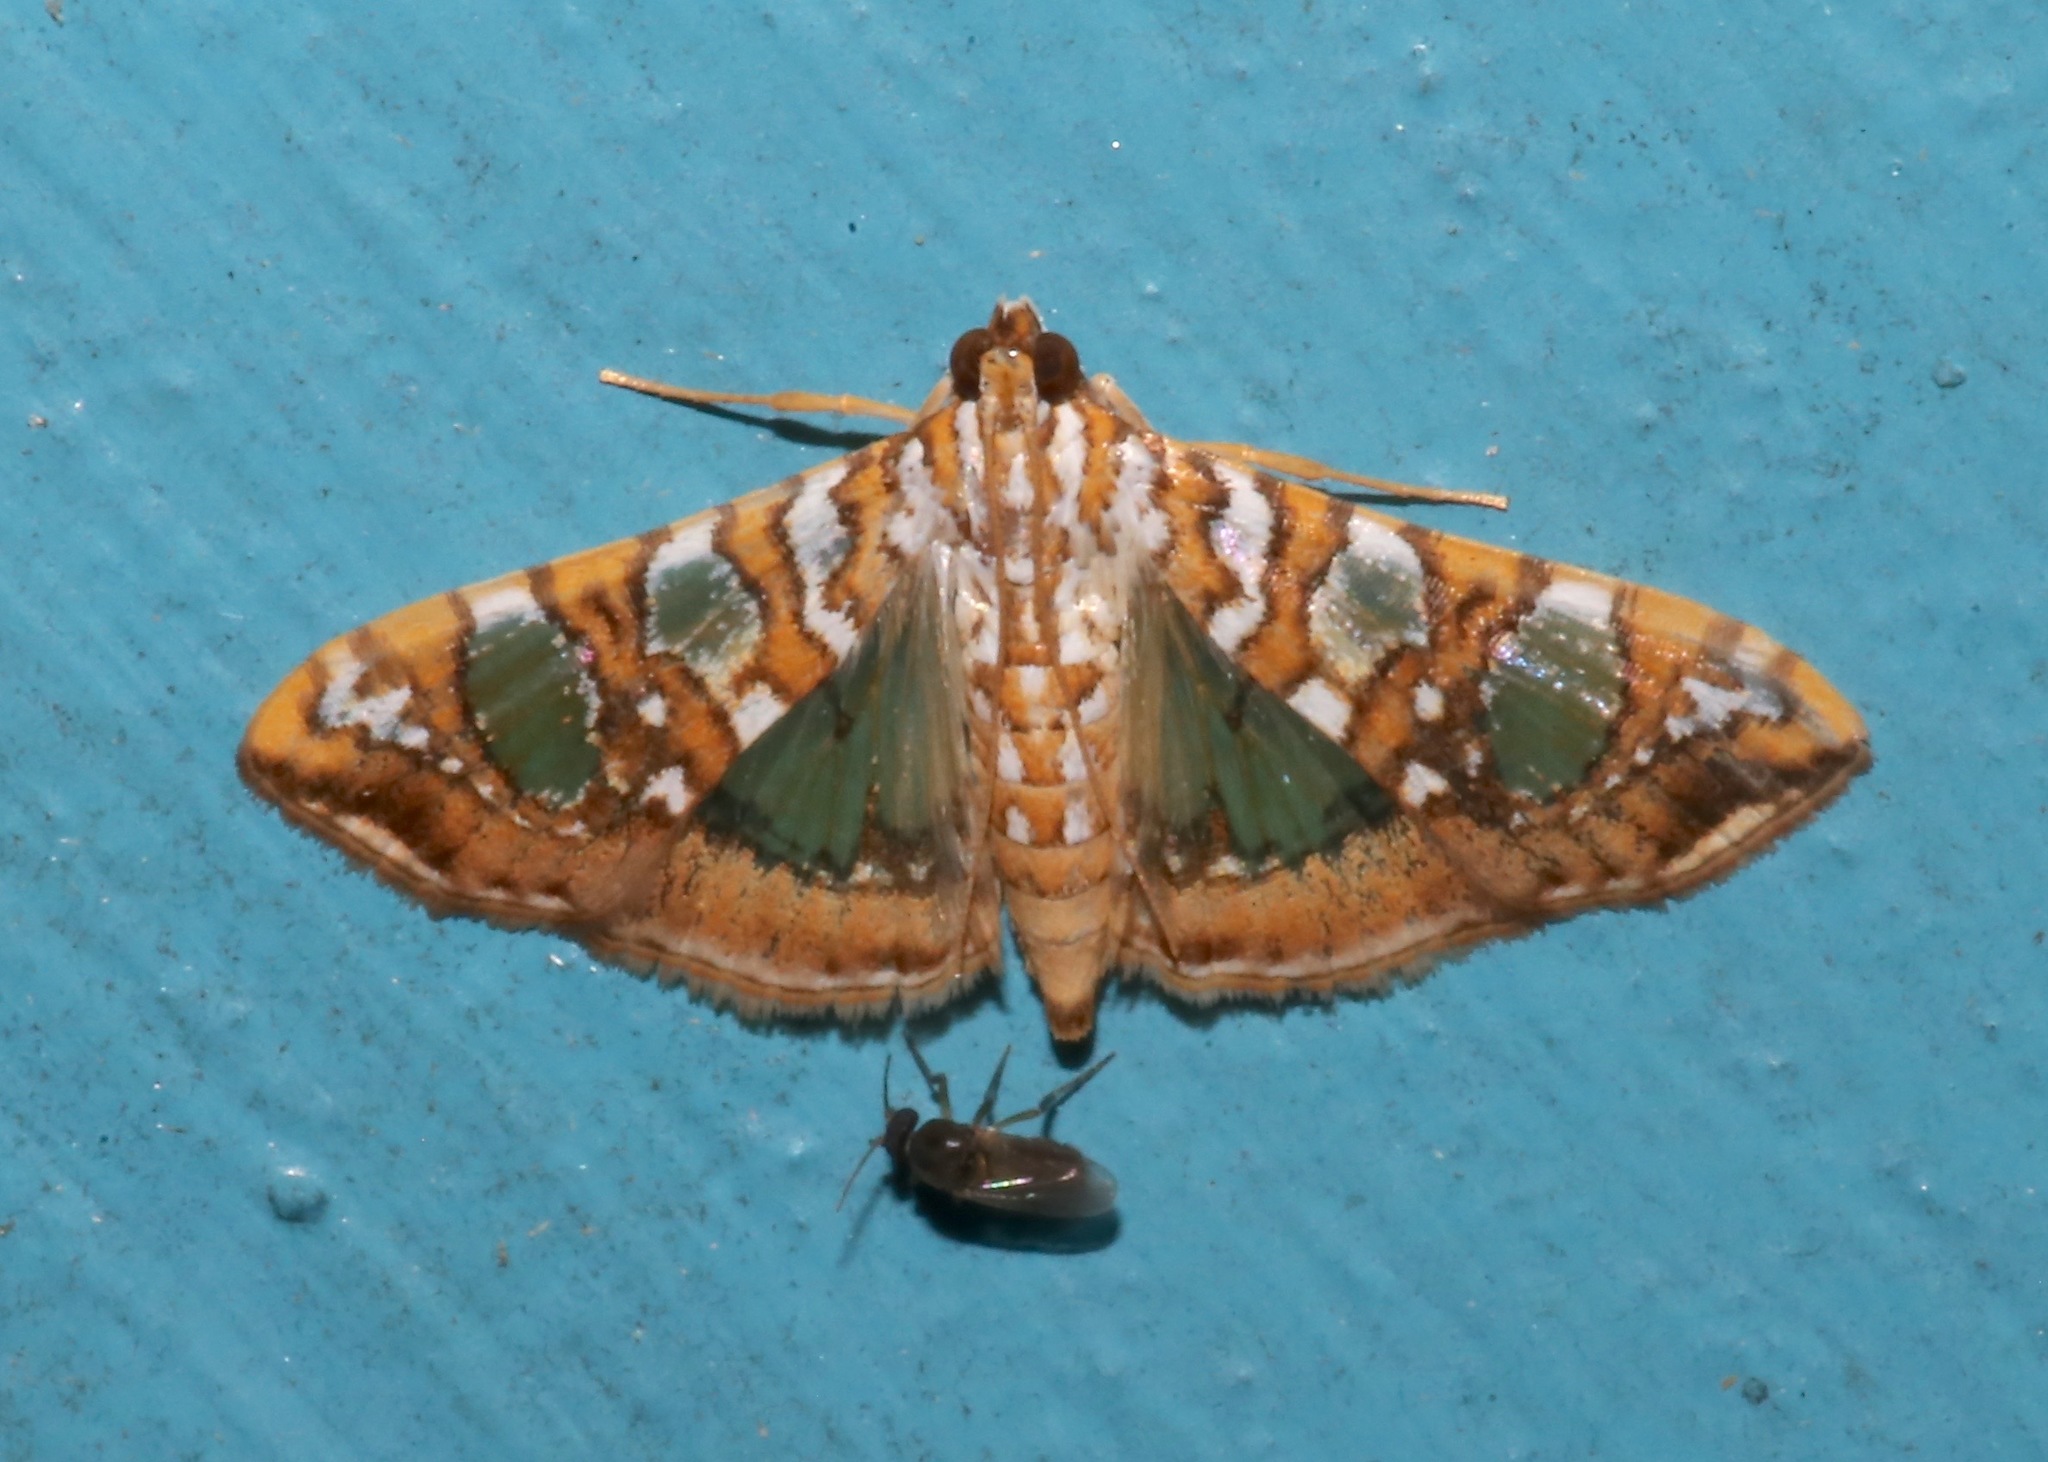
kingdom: Animalia
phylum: Arthropoda
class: Insecta
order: Lepidoptera
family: Crambidae
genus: Glyphodes
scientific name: Glyphodes sibillalis
